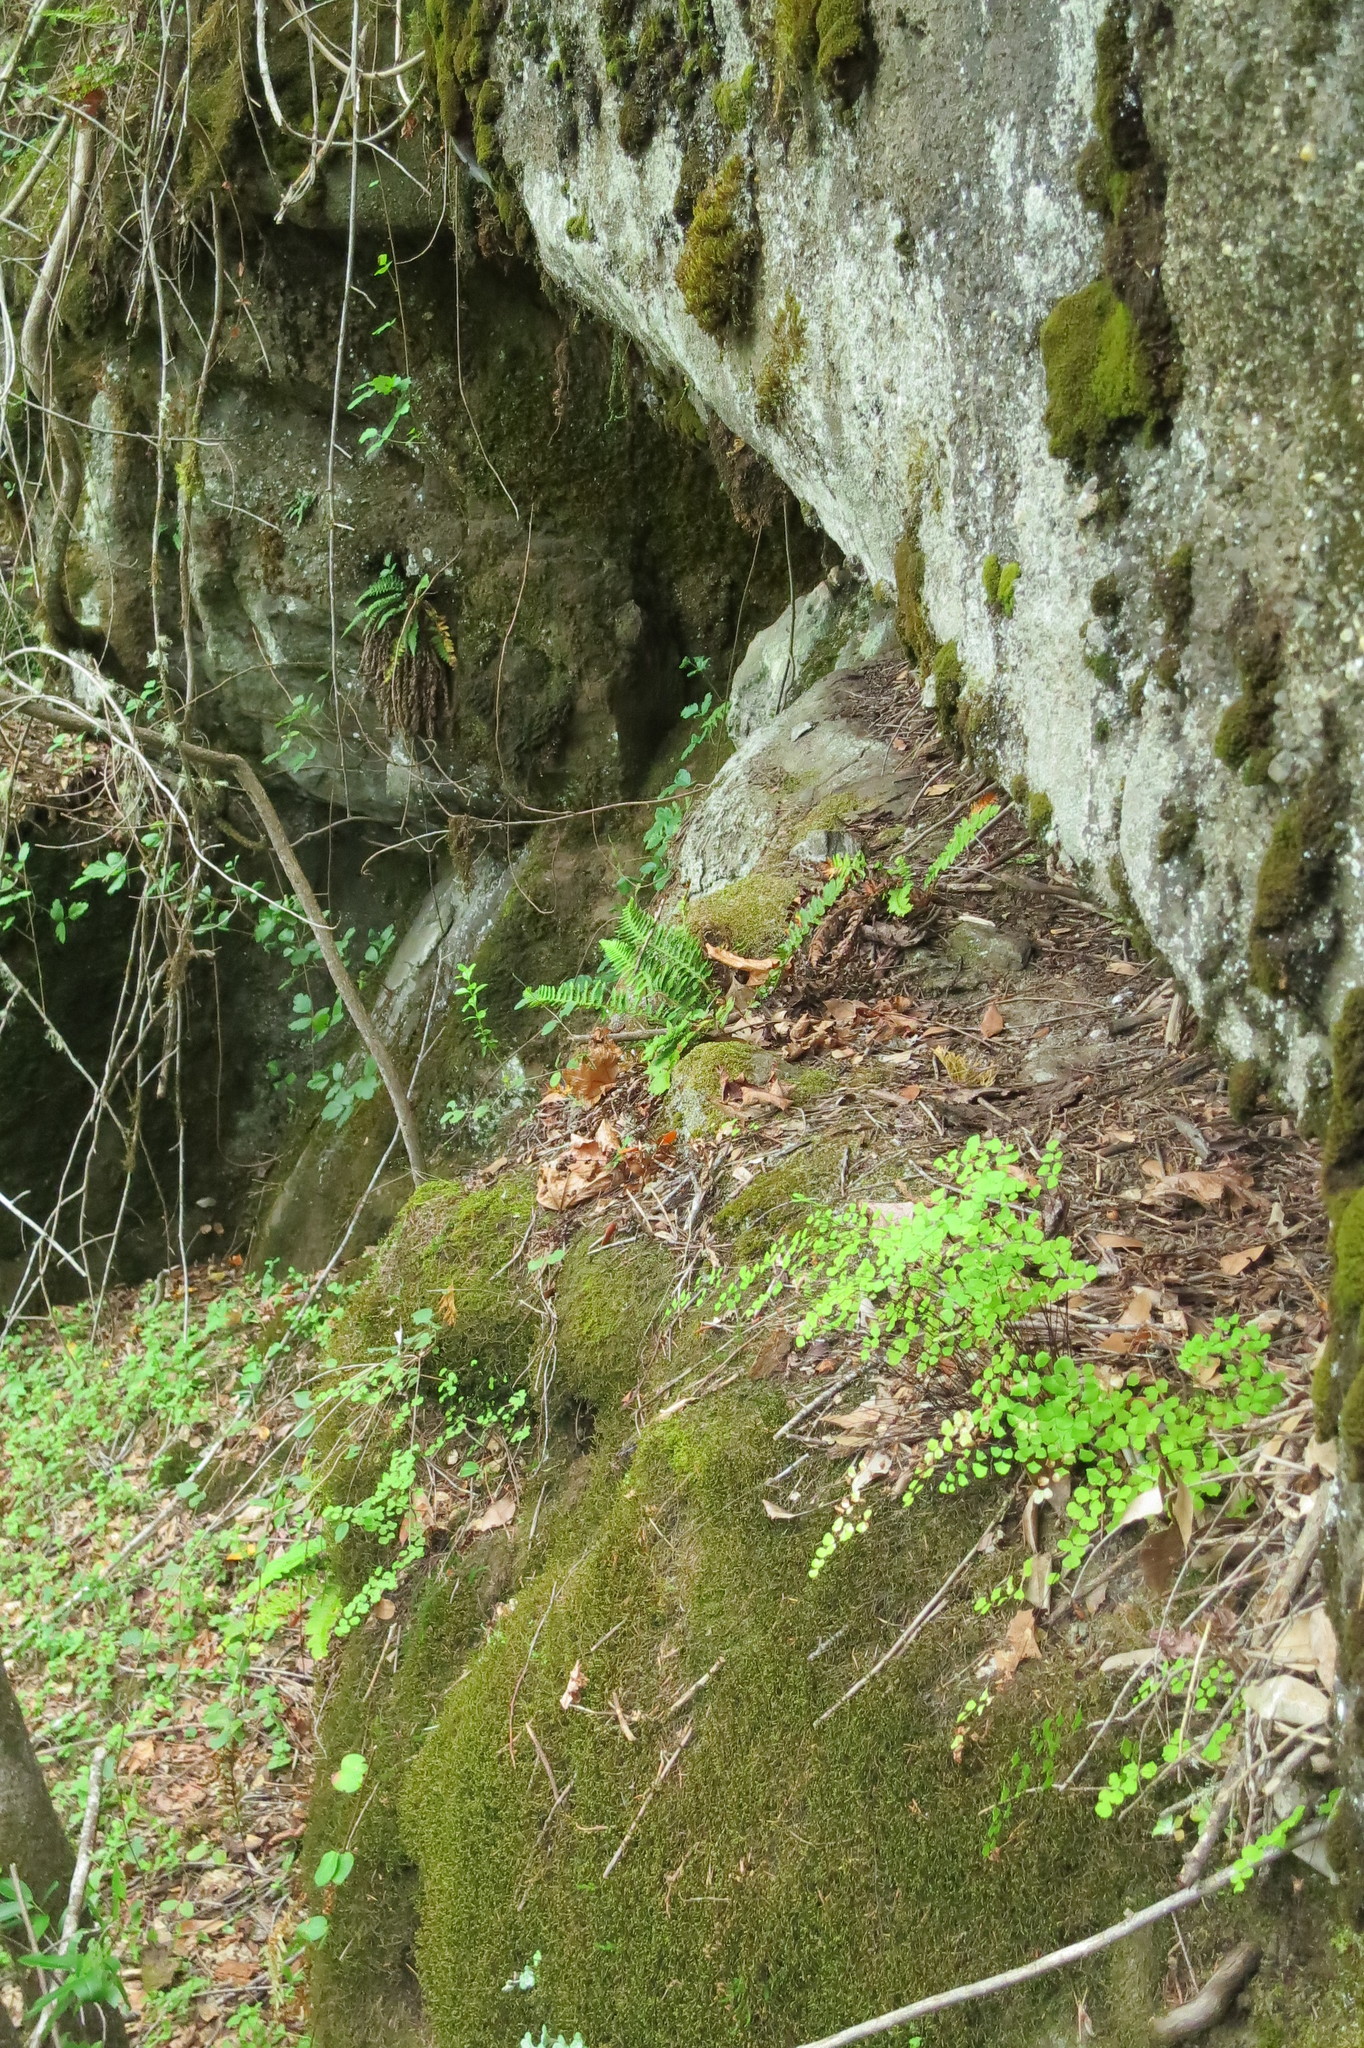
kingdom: Plantae
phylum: Tracheophyta
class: Polypodiopsida
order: Polypodiales
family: Dryopteridaceae
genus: Polystichum
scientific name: Polystichum californicum
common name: California sword fern
